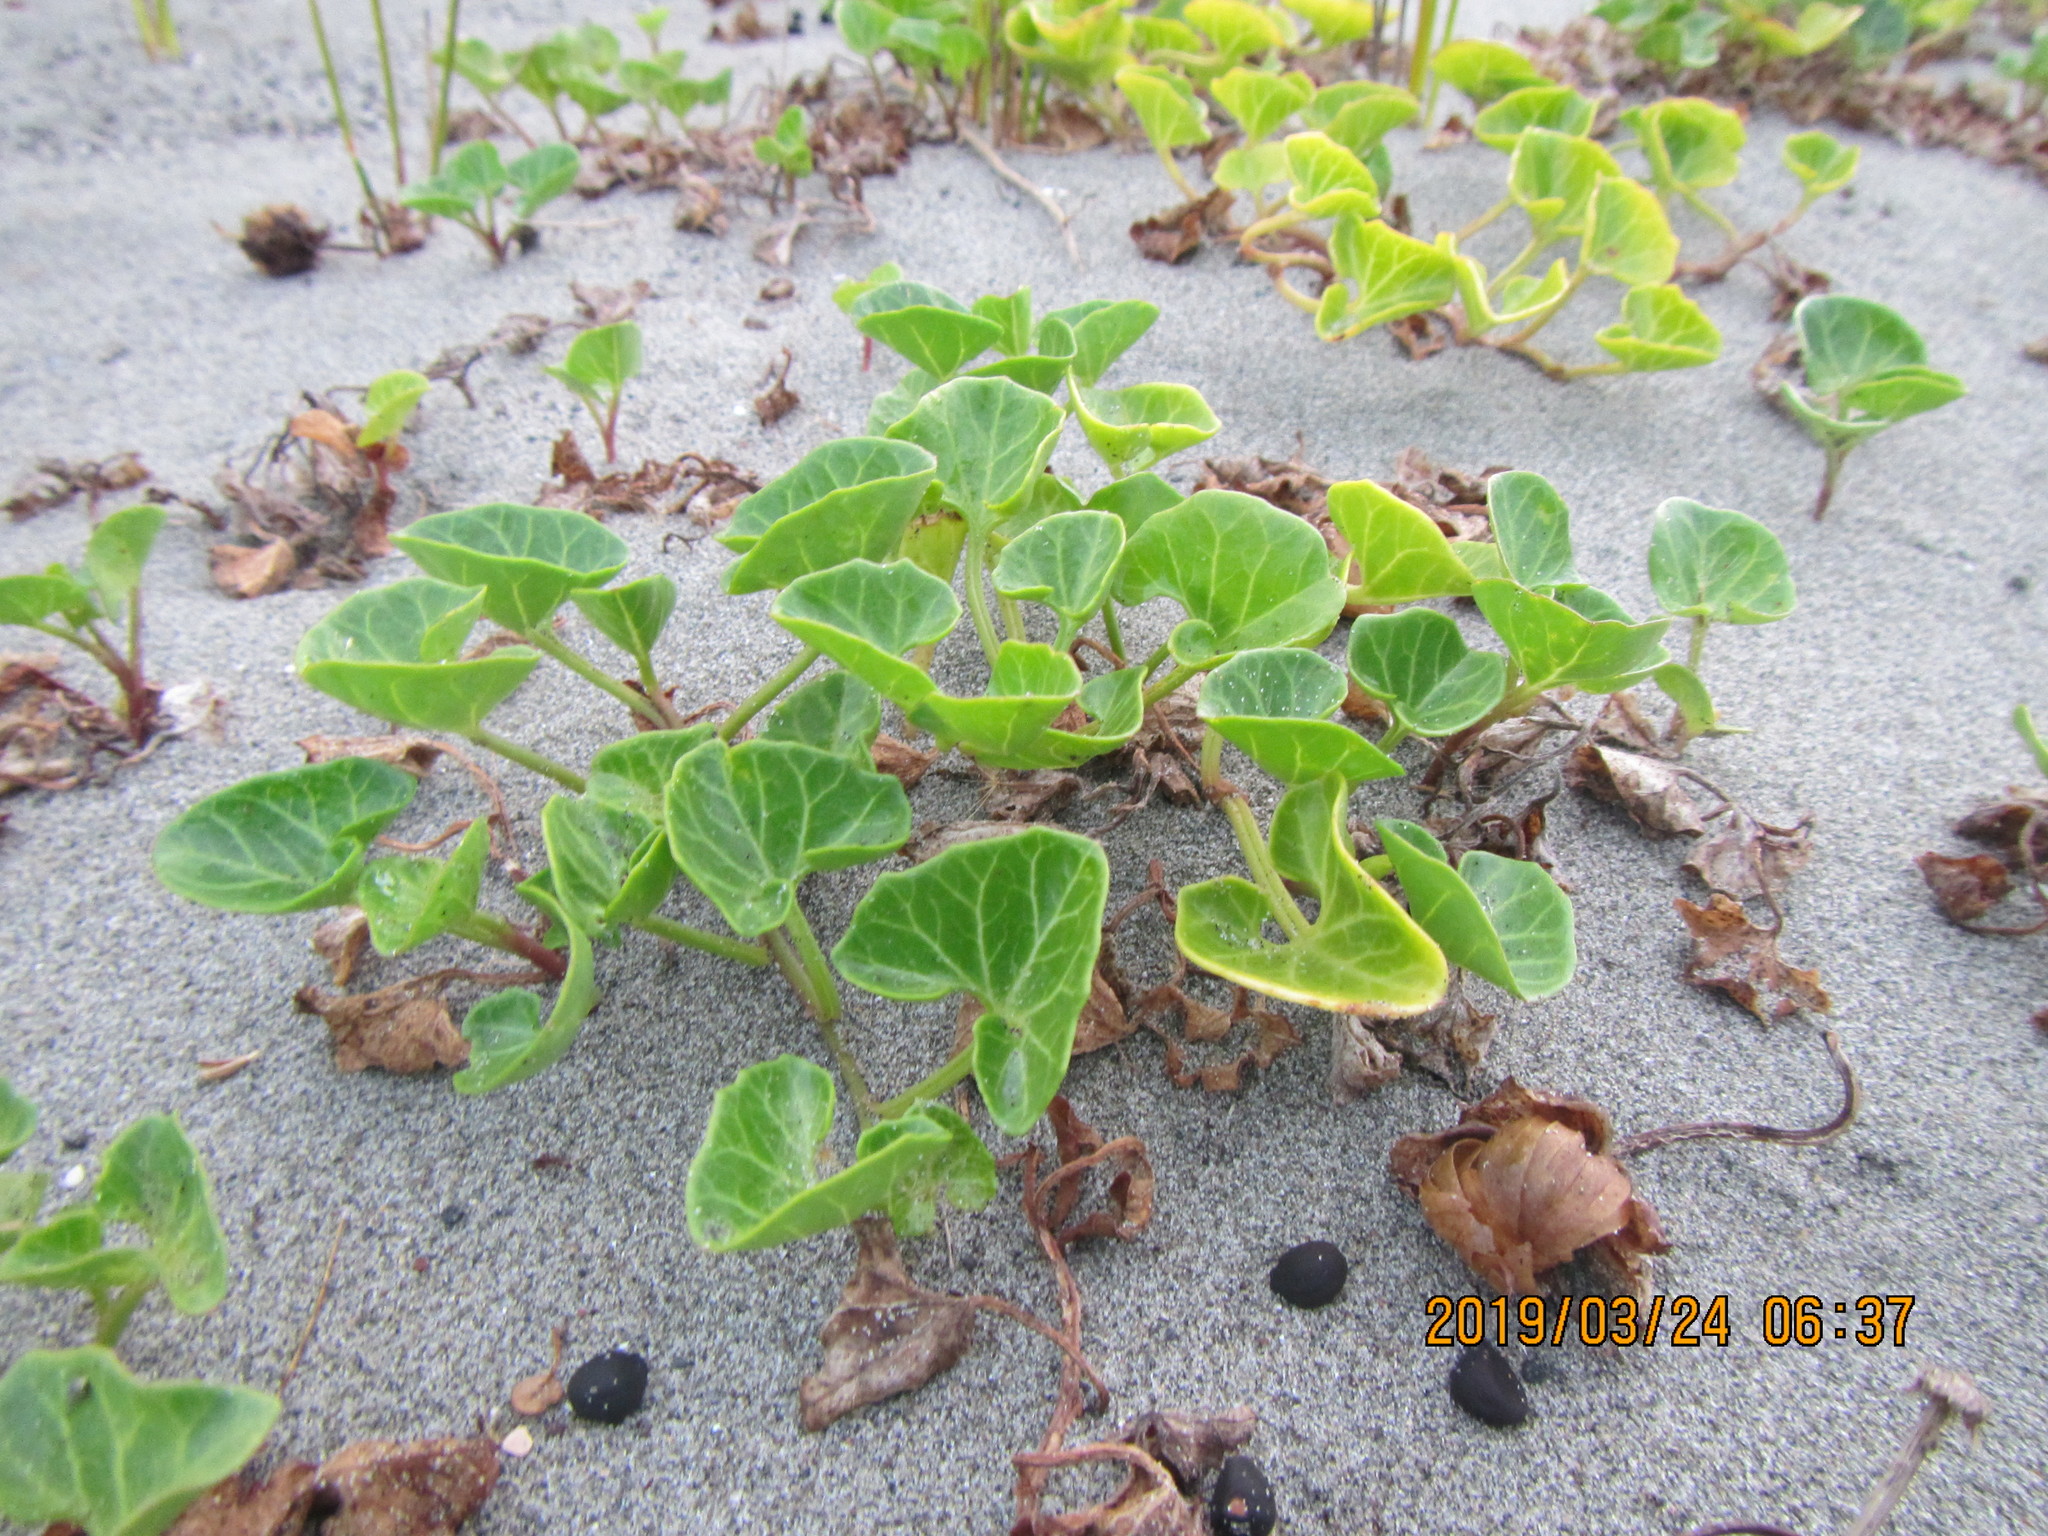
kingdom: Plantae
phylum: Tracheophyta
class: Magnoliopsida
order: Solanales
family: Convolvulaceae
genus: Calystegia
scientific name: Calystegia soldanella
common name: Sea bindweed
